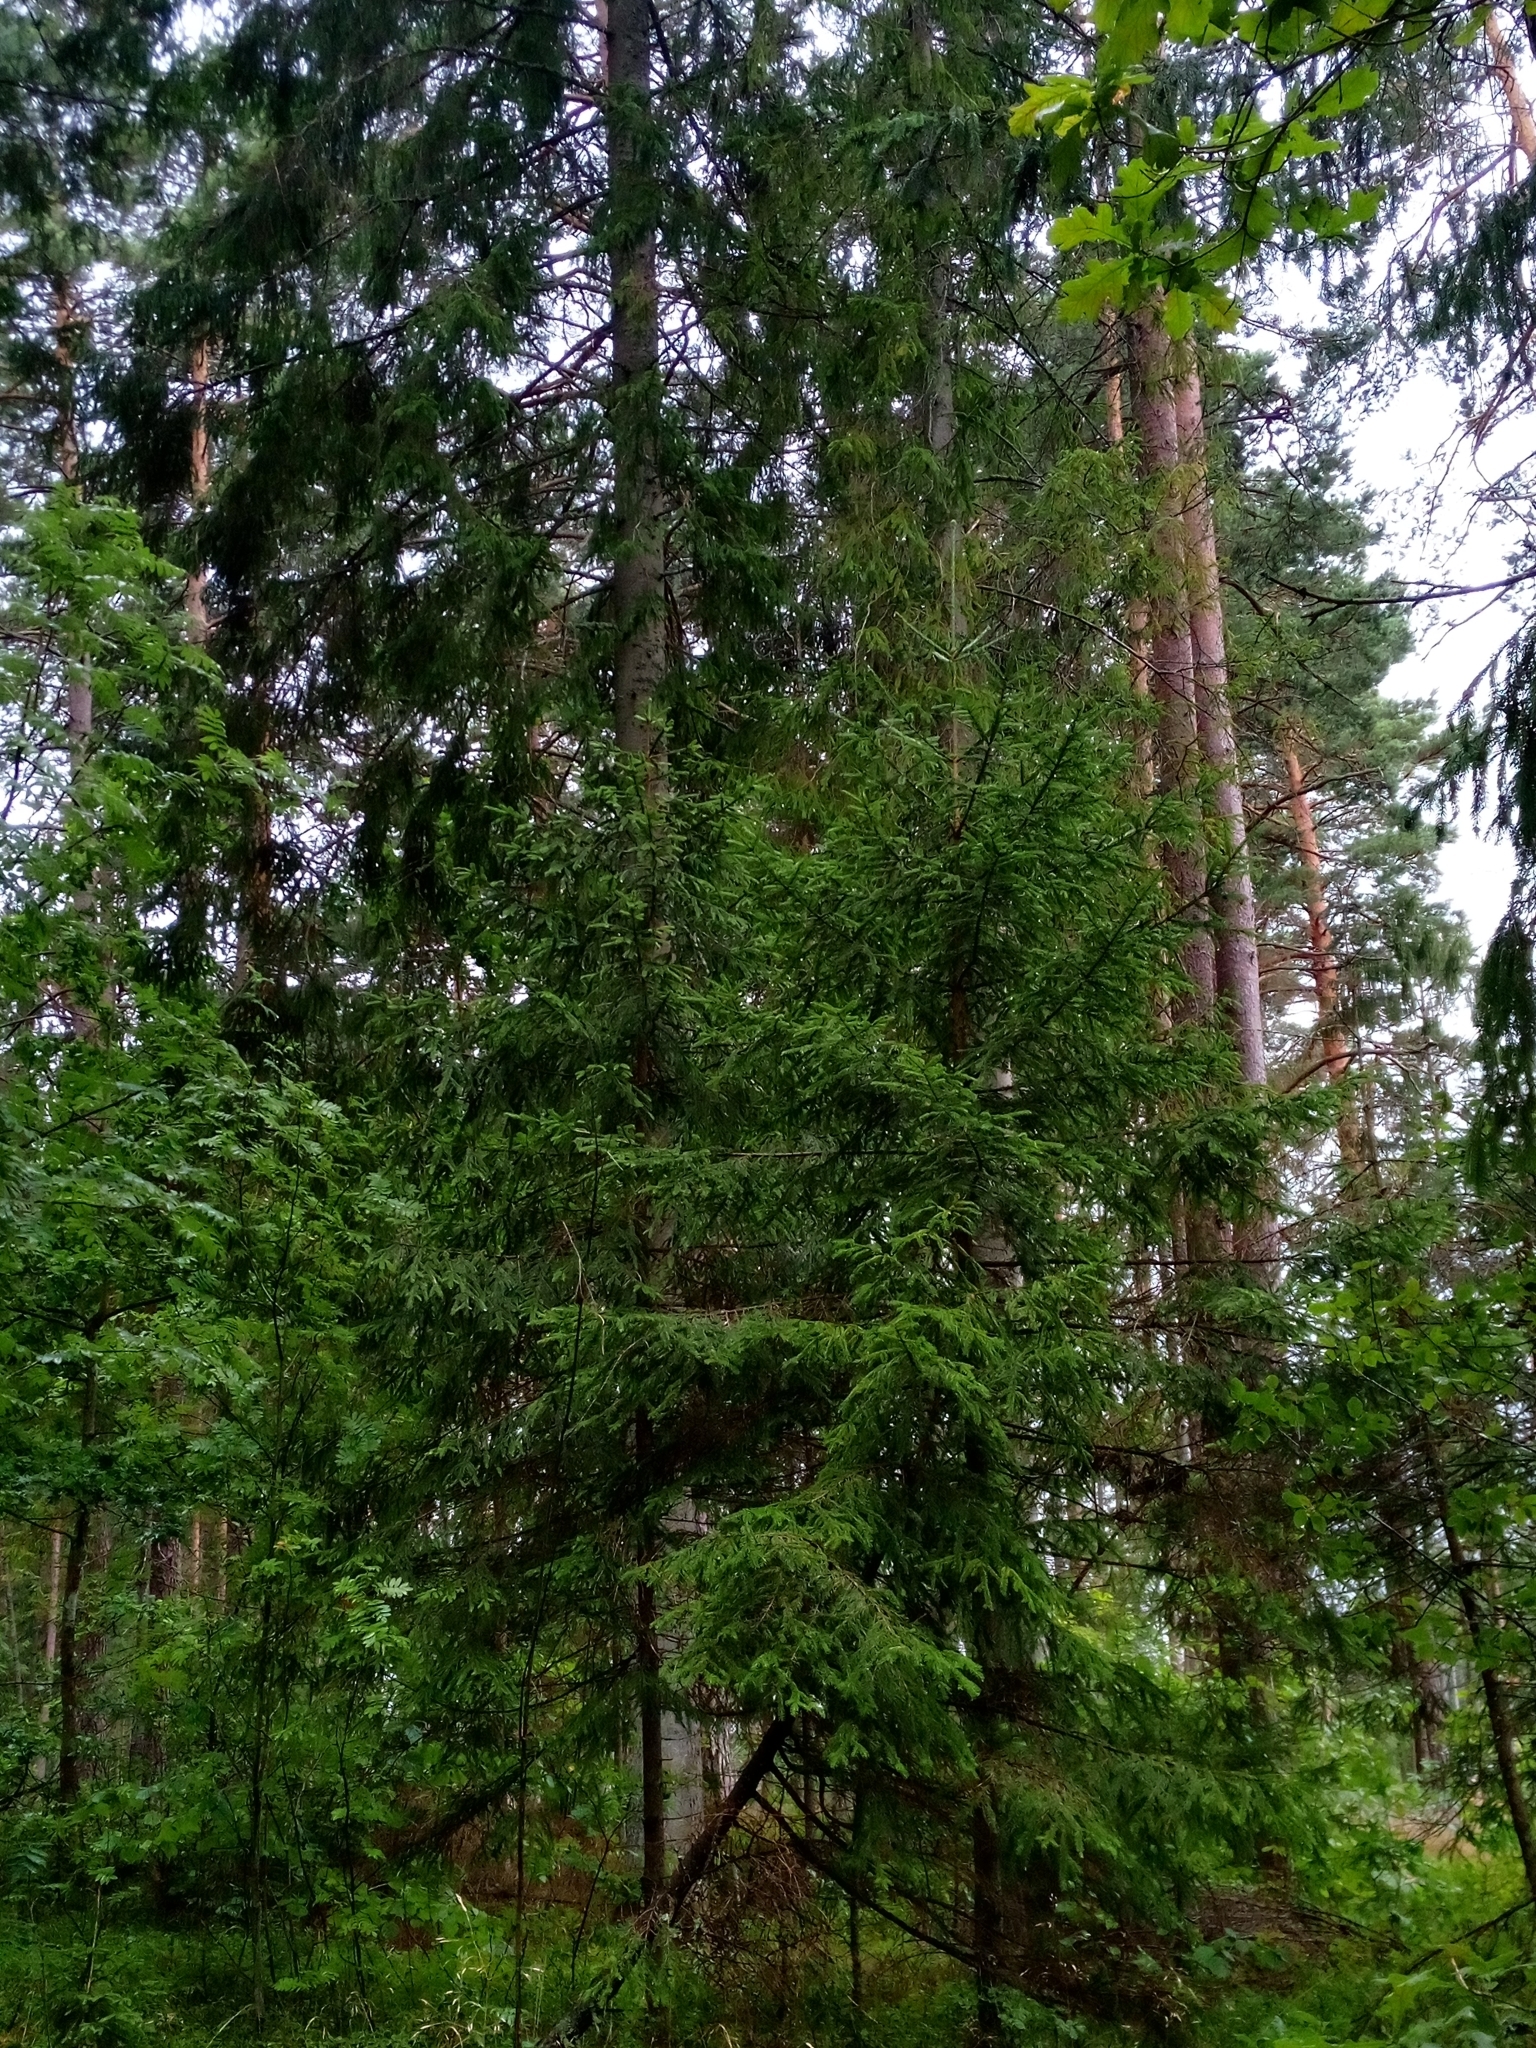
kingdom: Plantae
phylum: Tracheophyta
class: Pinopsida
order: Pinales
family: Pinaceae
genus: Picea
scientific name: Picea abies
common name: Norway spruce
